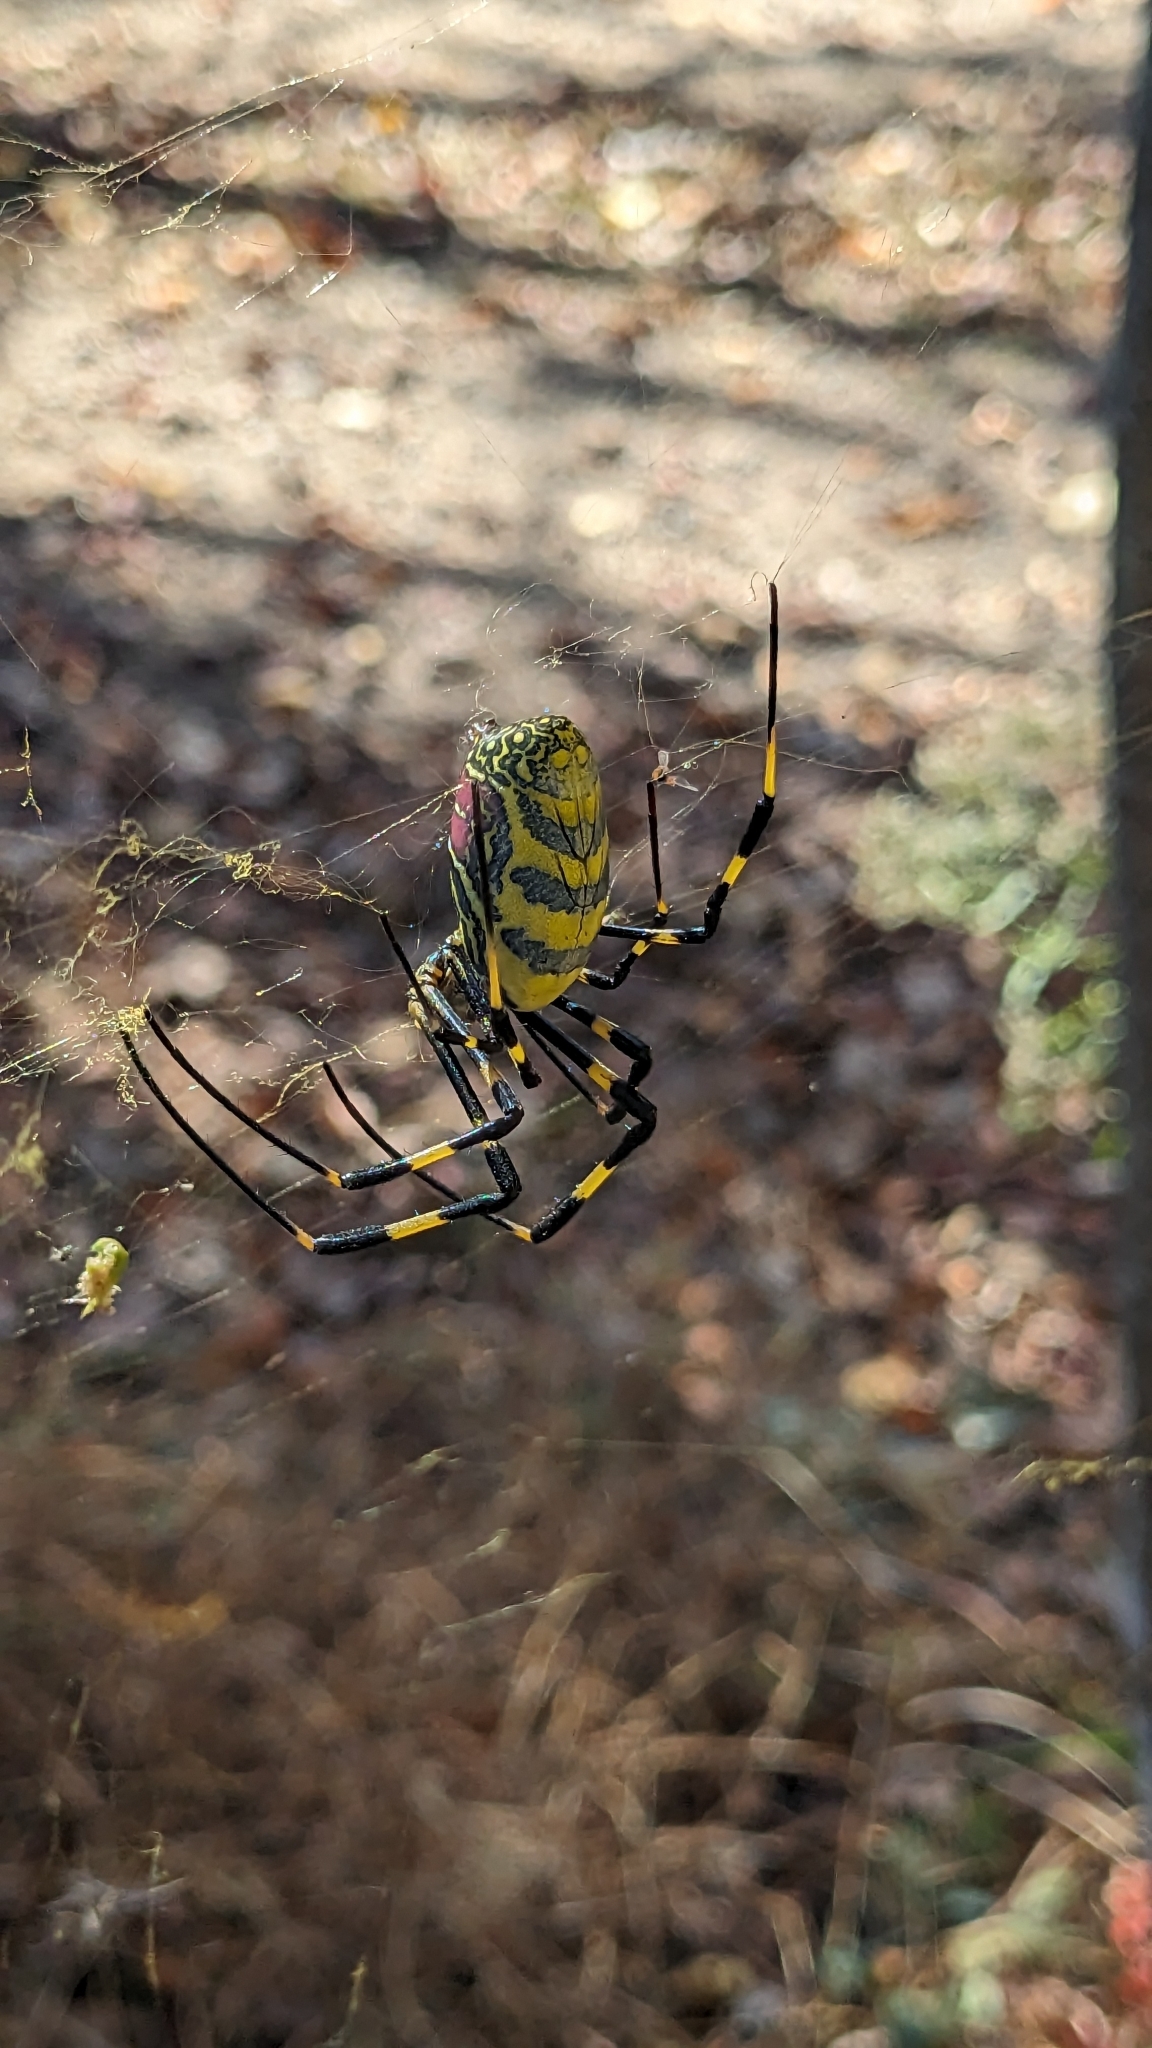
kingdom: Animalia
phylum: Arthropoda
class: Arachnida
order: Araneae
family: Araneidae
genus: Trichonephila
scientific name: Trichonephila clavata
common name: Jorō spider
